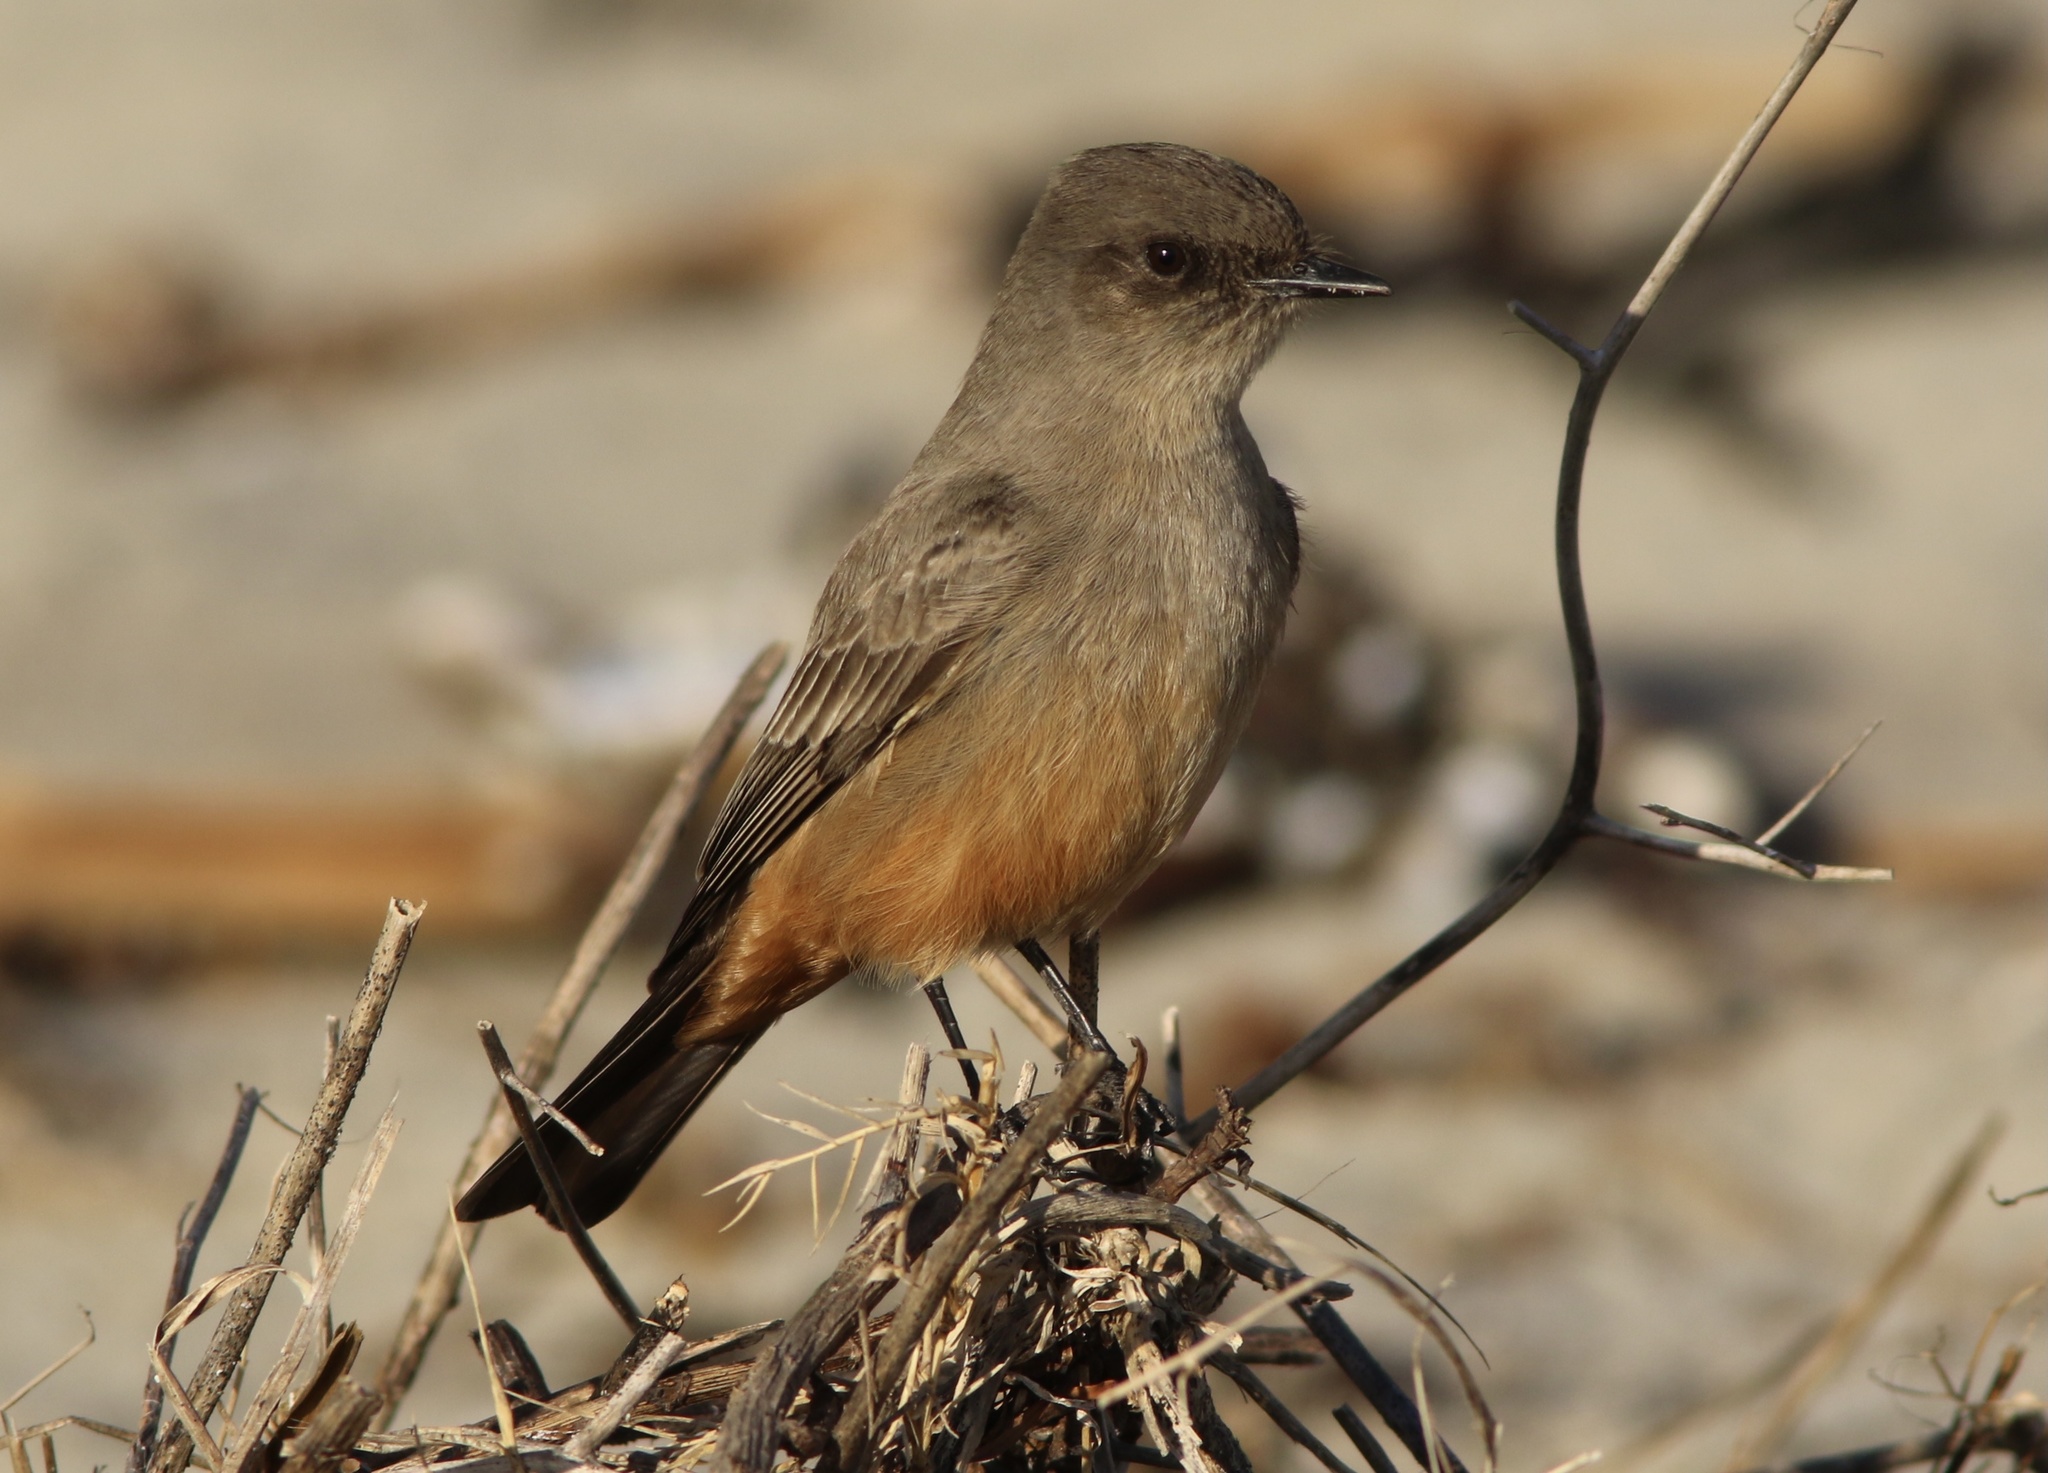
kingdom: Animalia
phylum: Chordata
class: Aves
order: Passeriformes
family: Tyrannidae
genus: Sayornis
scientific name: Sayornis saya
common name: Say's phoebe
